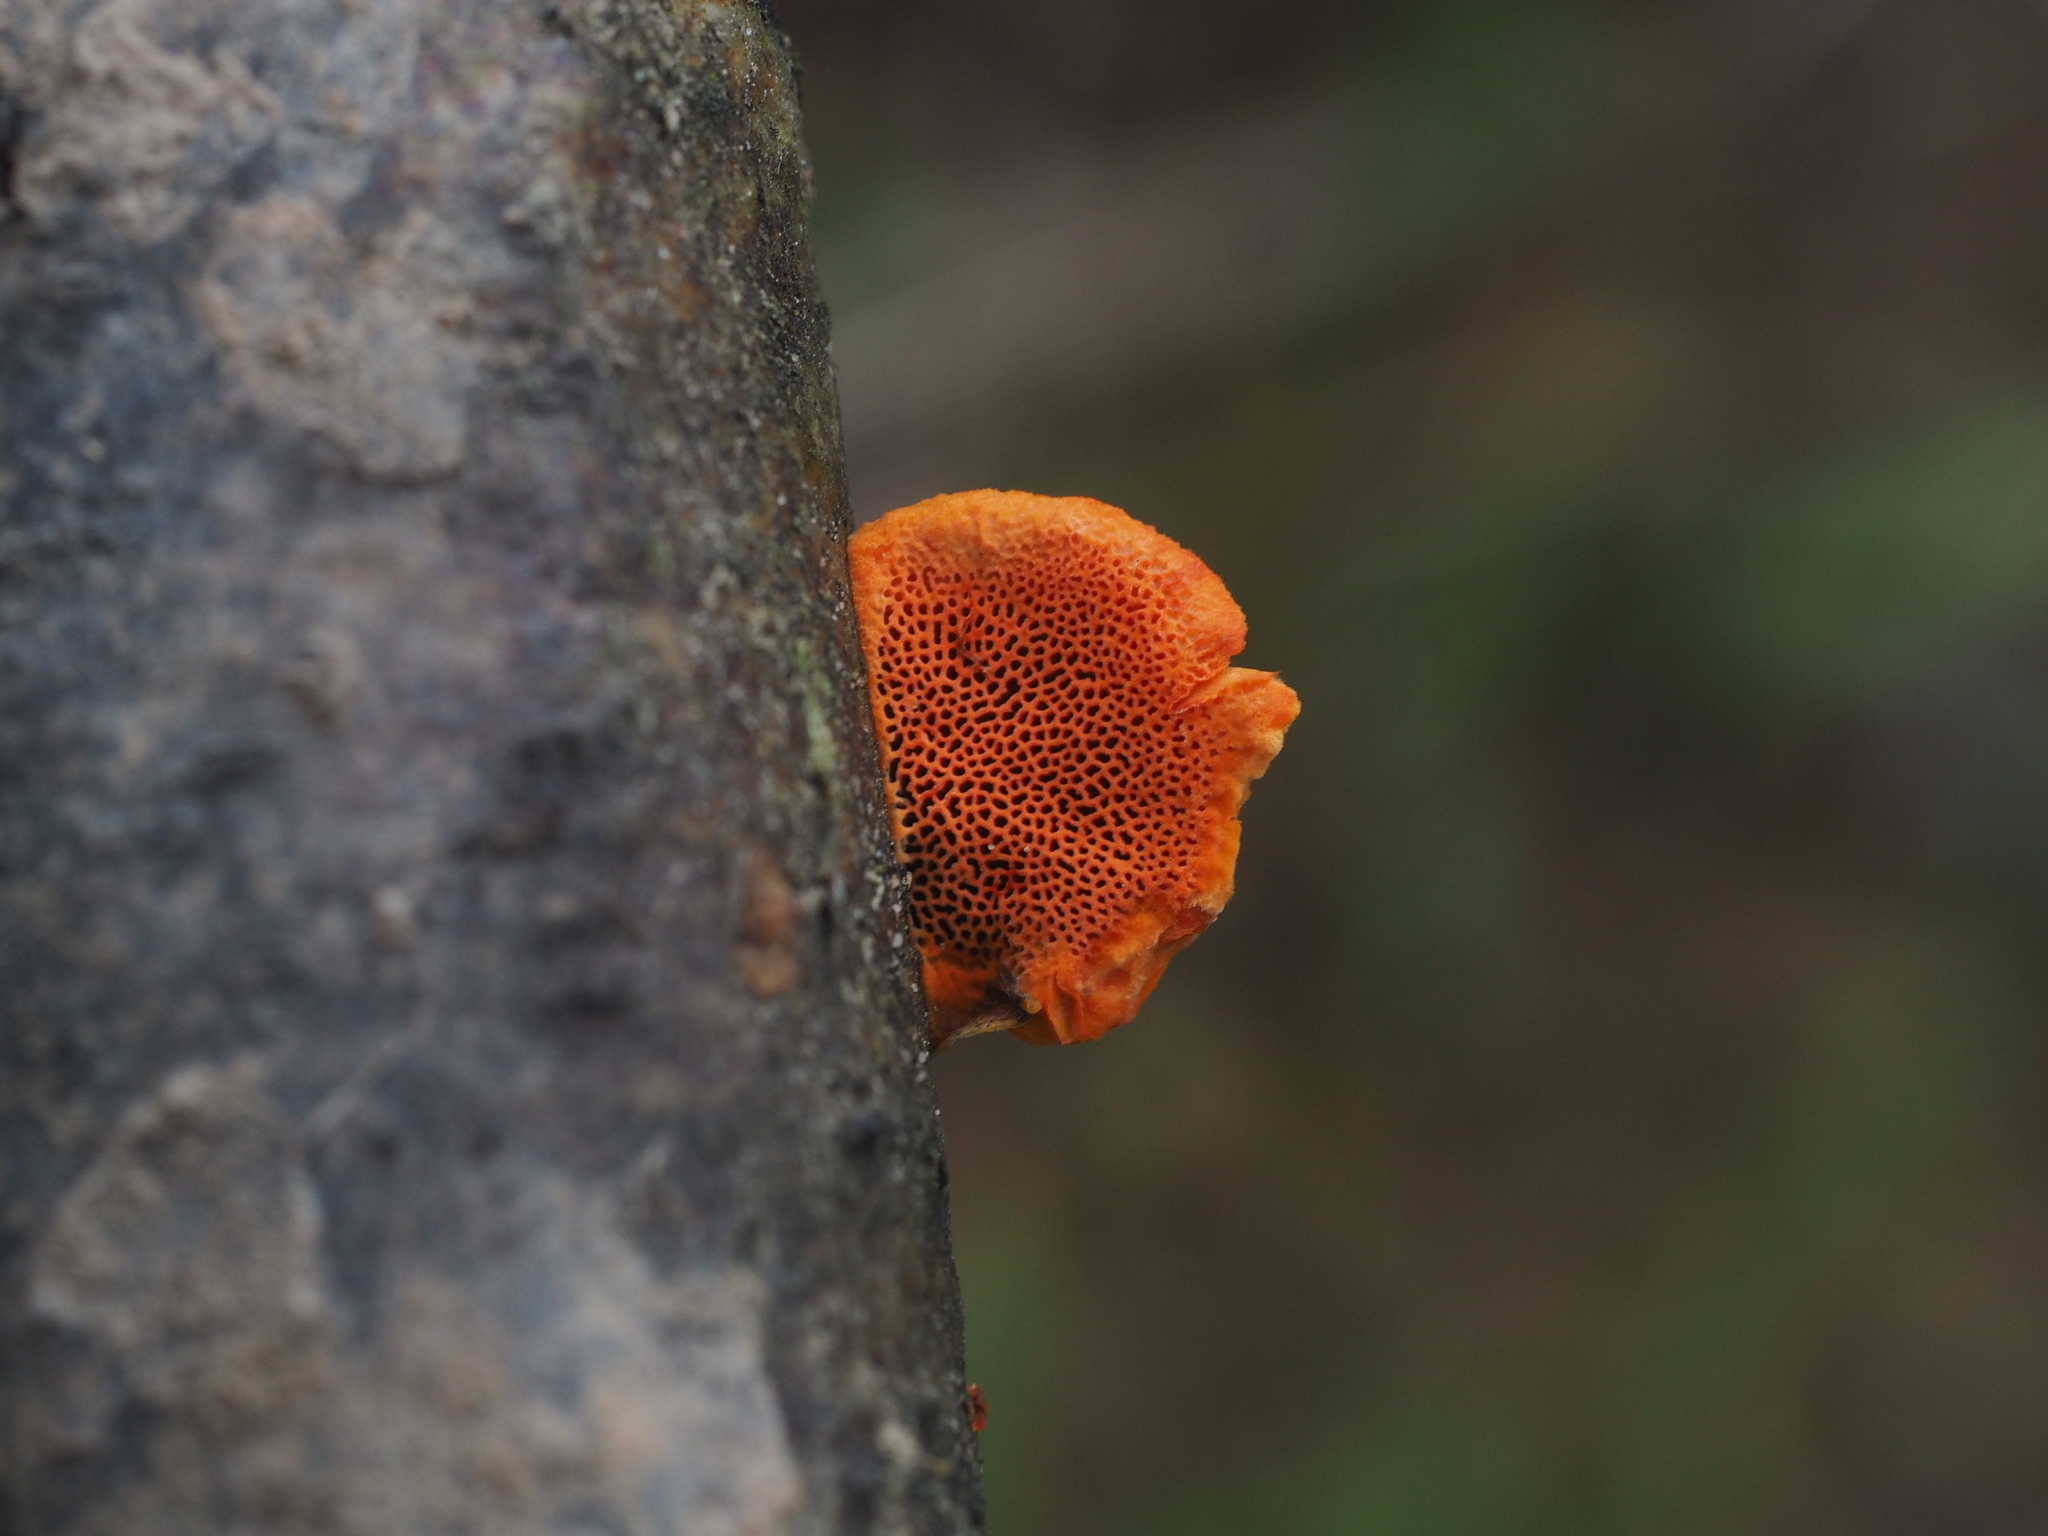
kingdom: Fungi
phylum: Basidiomycota
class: Agaricomycetes
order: Polyporales
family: Polyporaceae
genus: Trametes
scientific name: Trametes cinnabarina
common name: Northern cinnabar polypore
